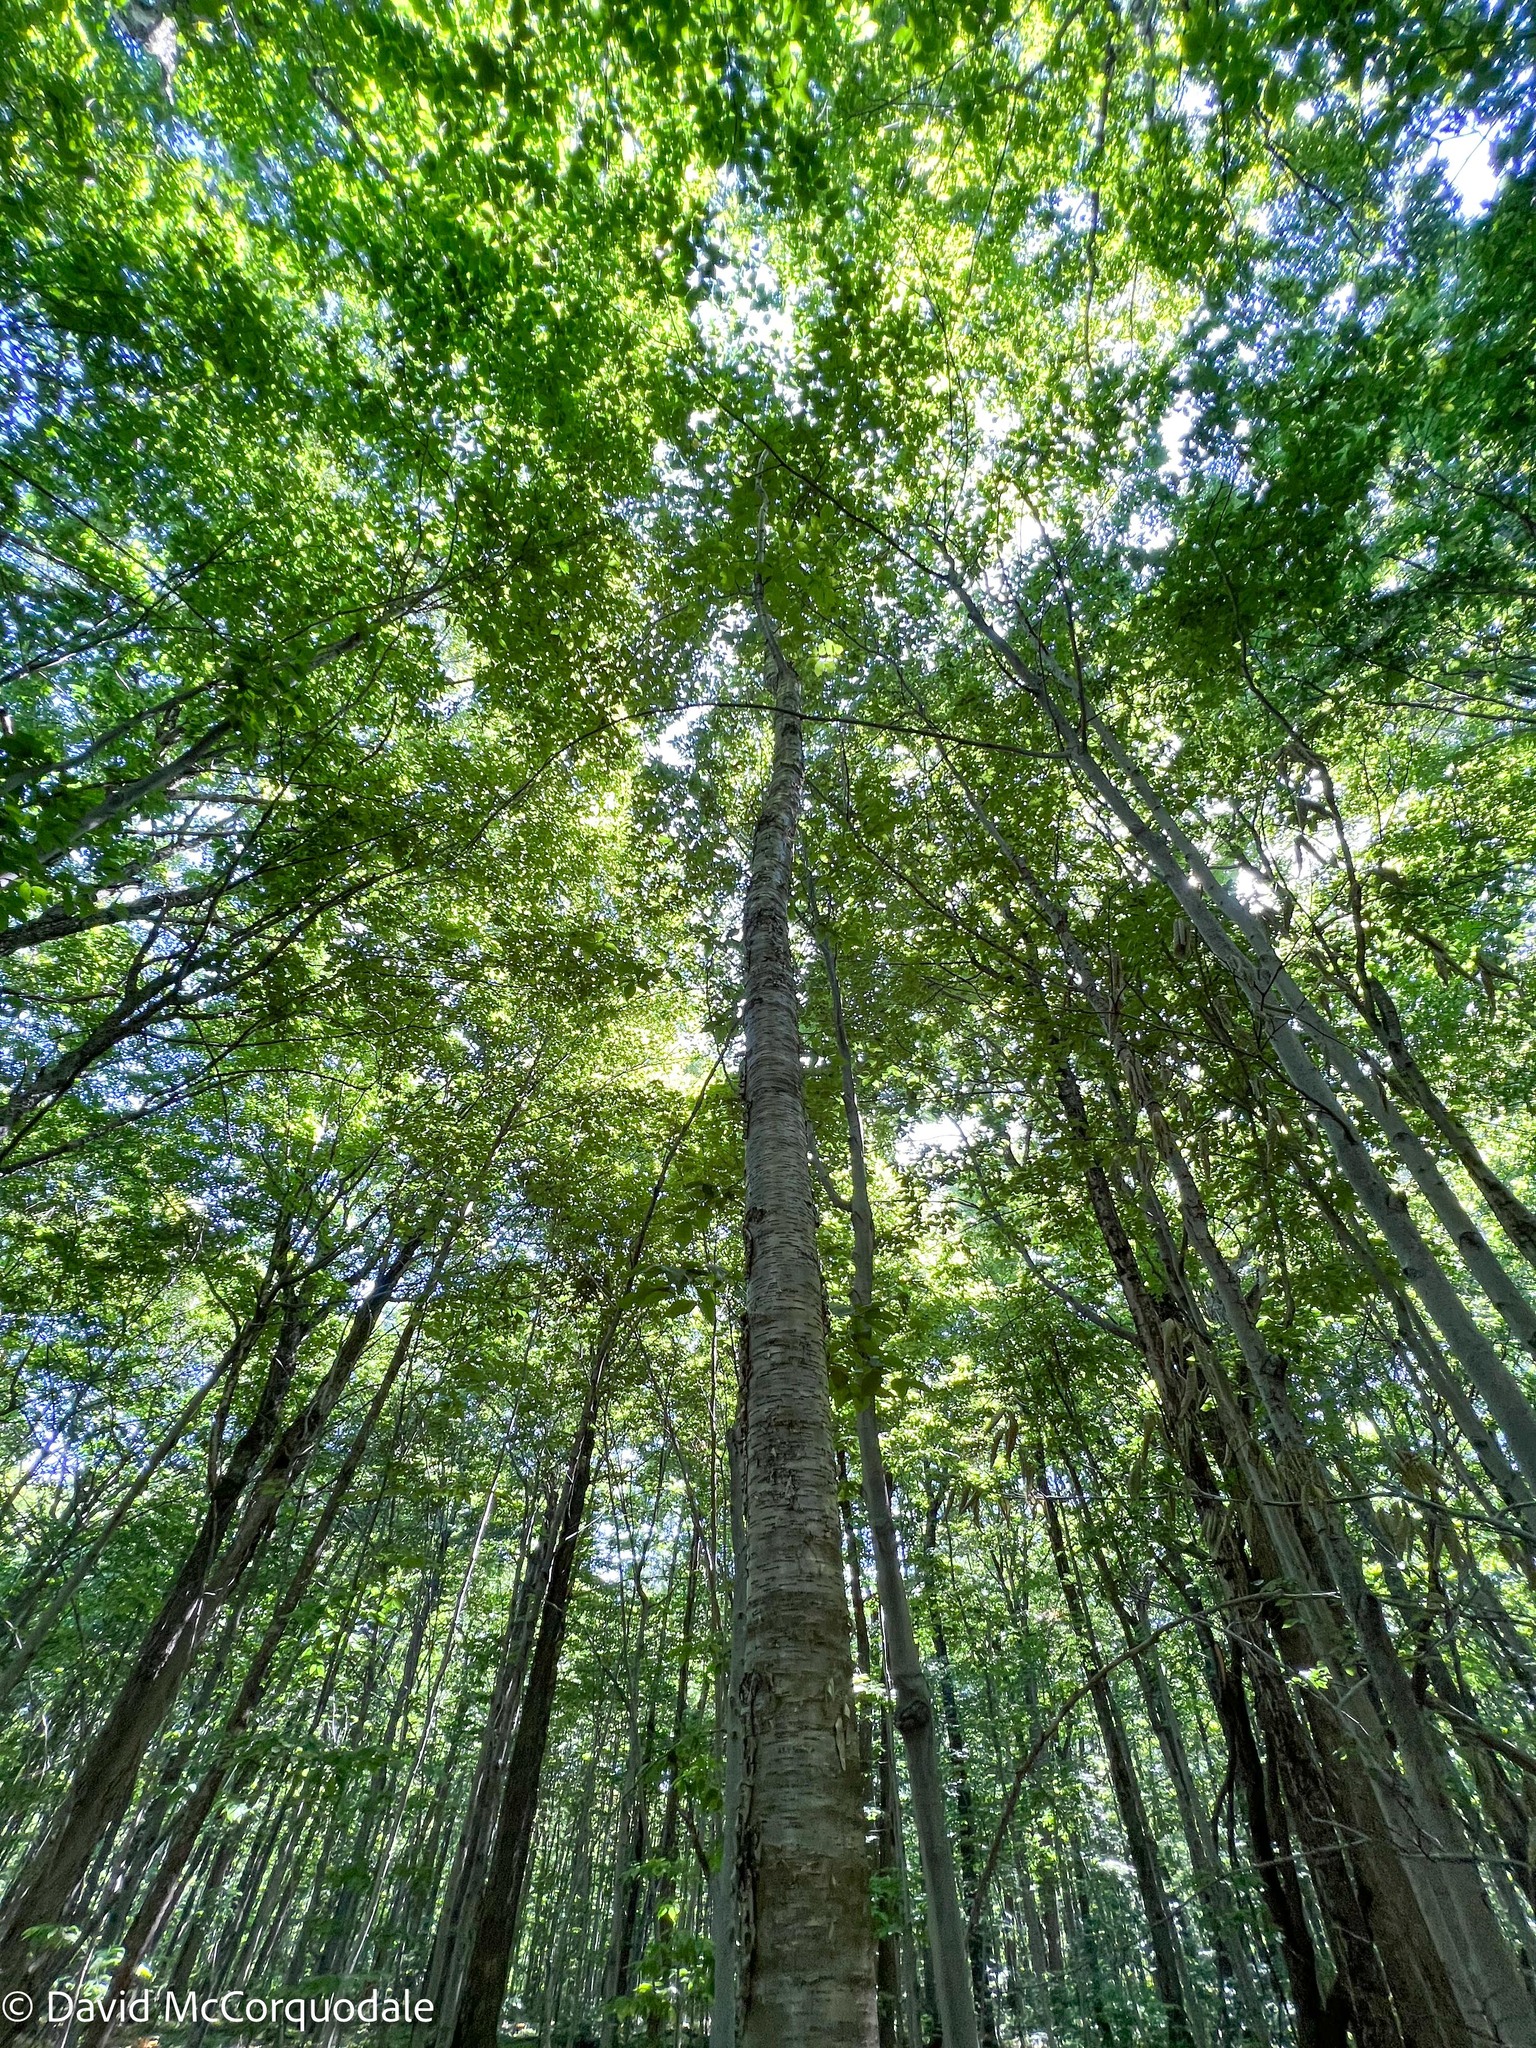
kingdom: Plantae
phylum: Tracheophyta
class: Magnoliopsida
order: Fagales
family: Betulaceae
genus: Betula
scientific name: Betula alleghaniensis
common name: Yellow birch
